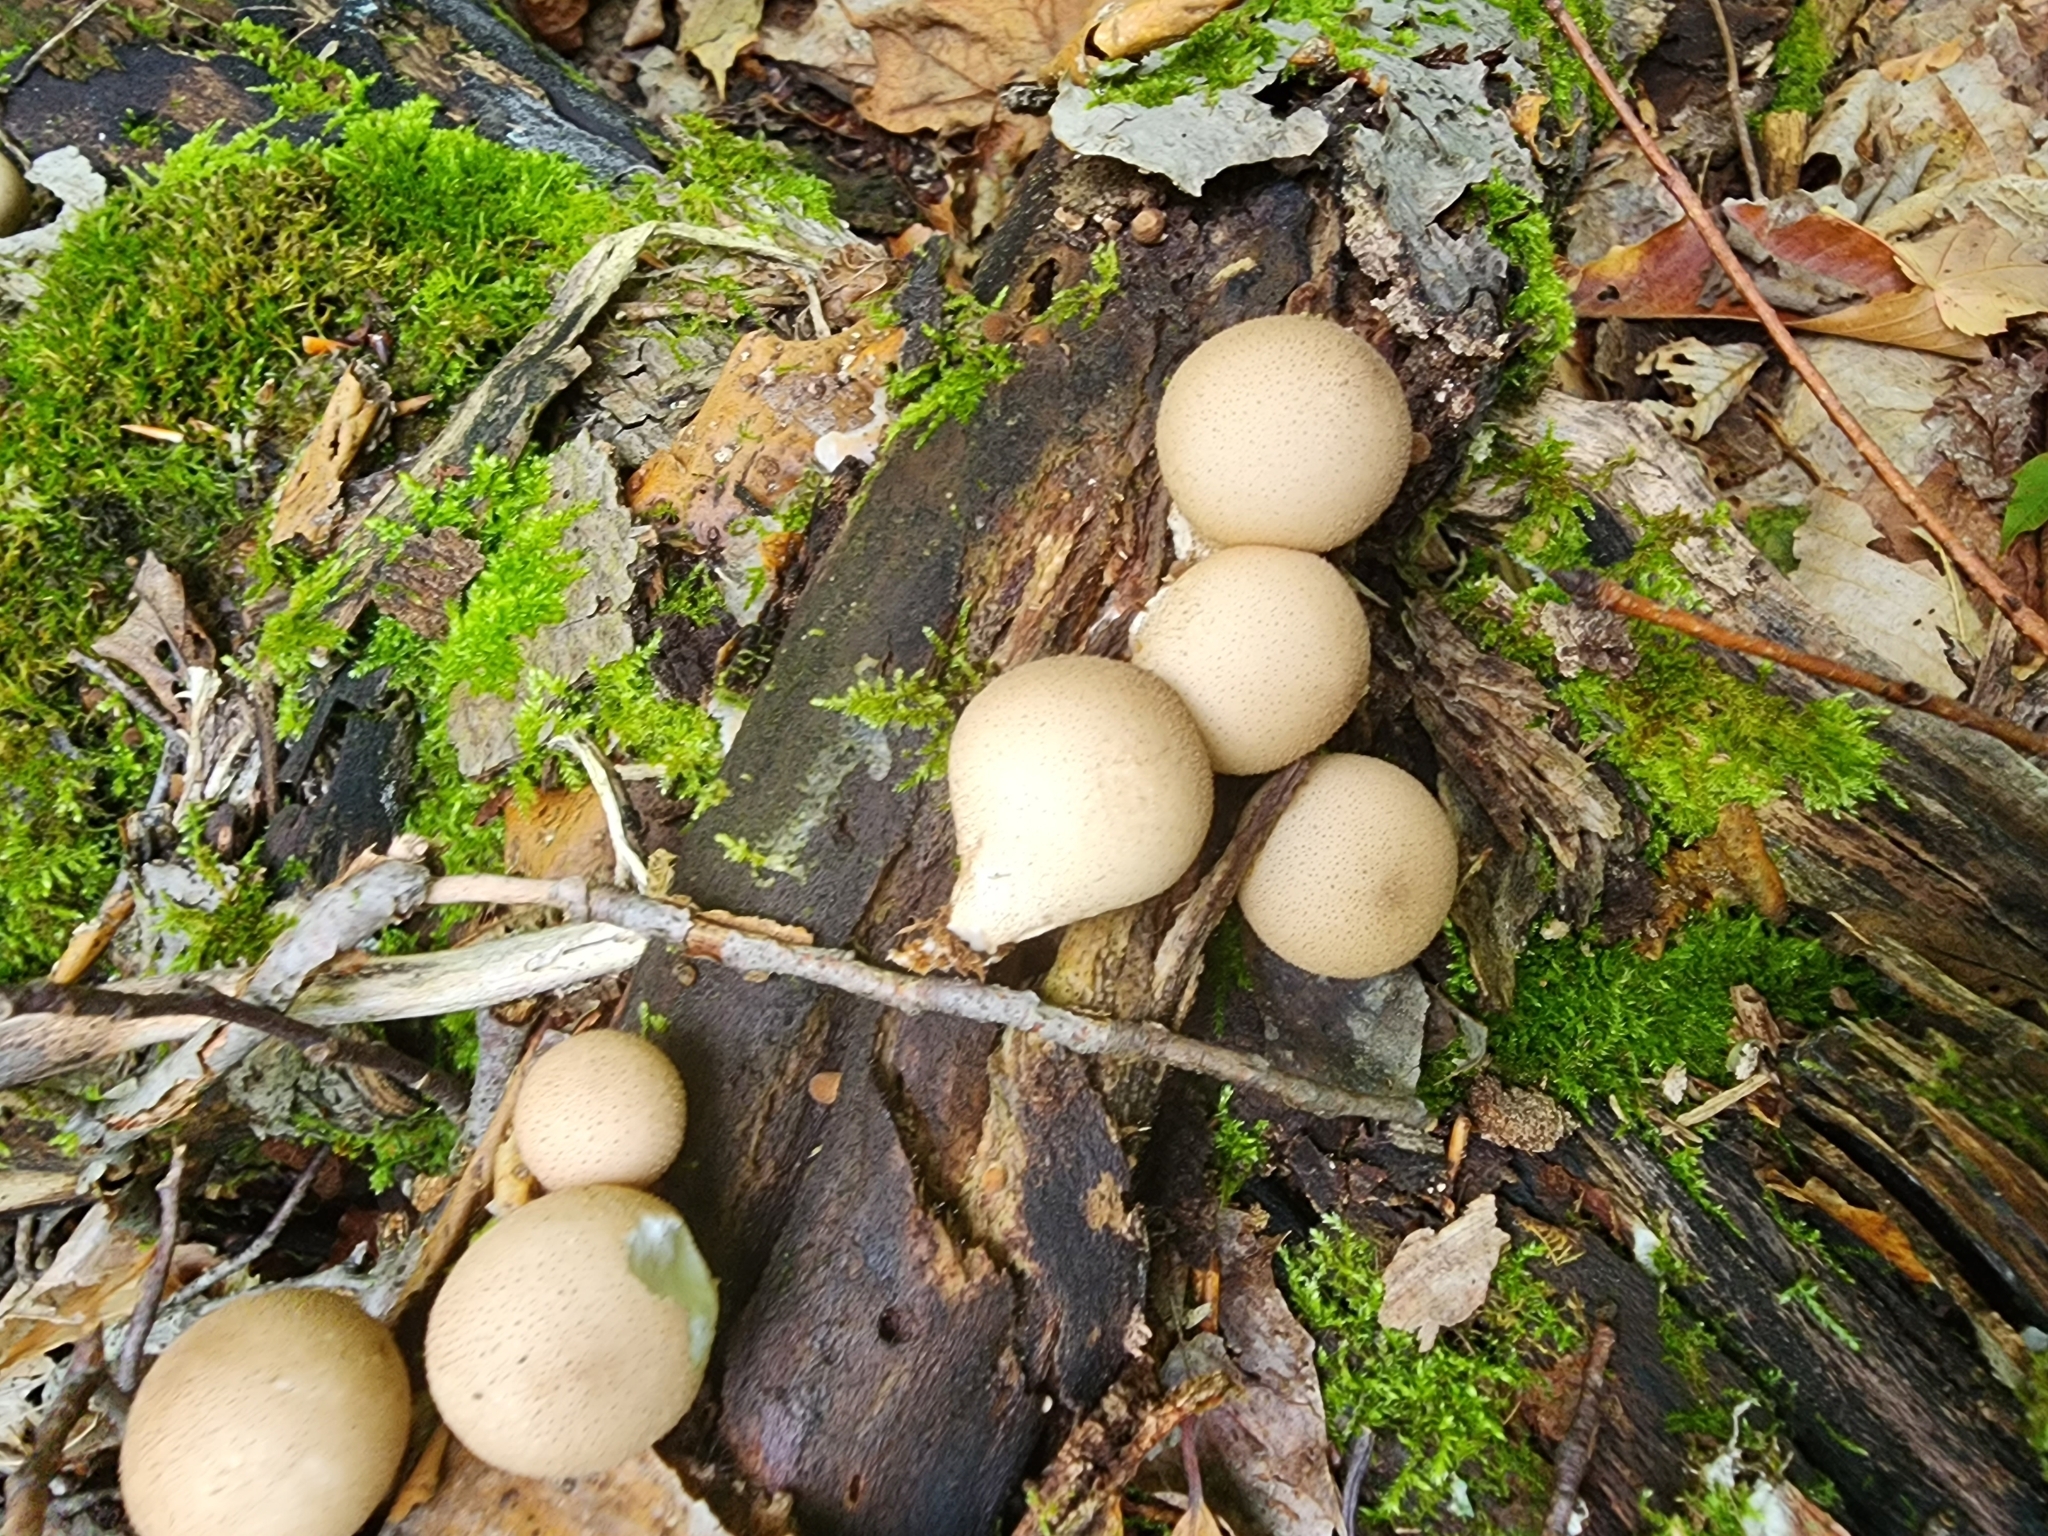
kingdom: Fungi
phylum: Basidiomycota
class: Agaricomycetes
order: Agaricales
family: Lycoperdaceae
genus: Apioperdon
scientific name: Apioperdon pyriforme
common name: Pear-shaped puffball
